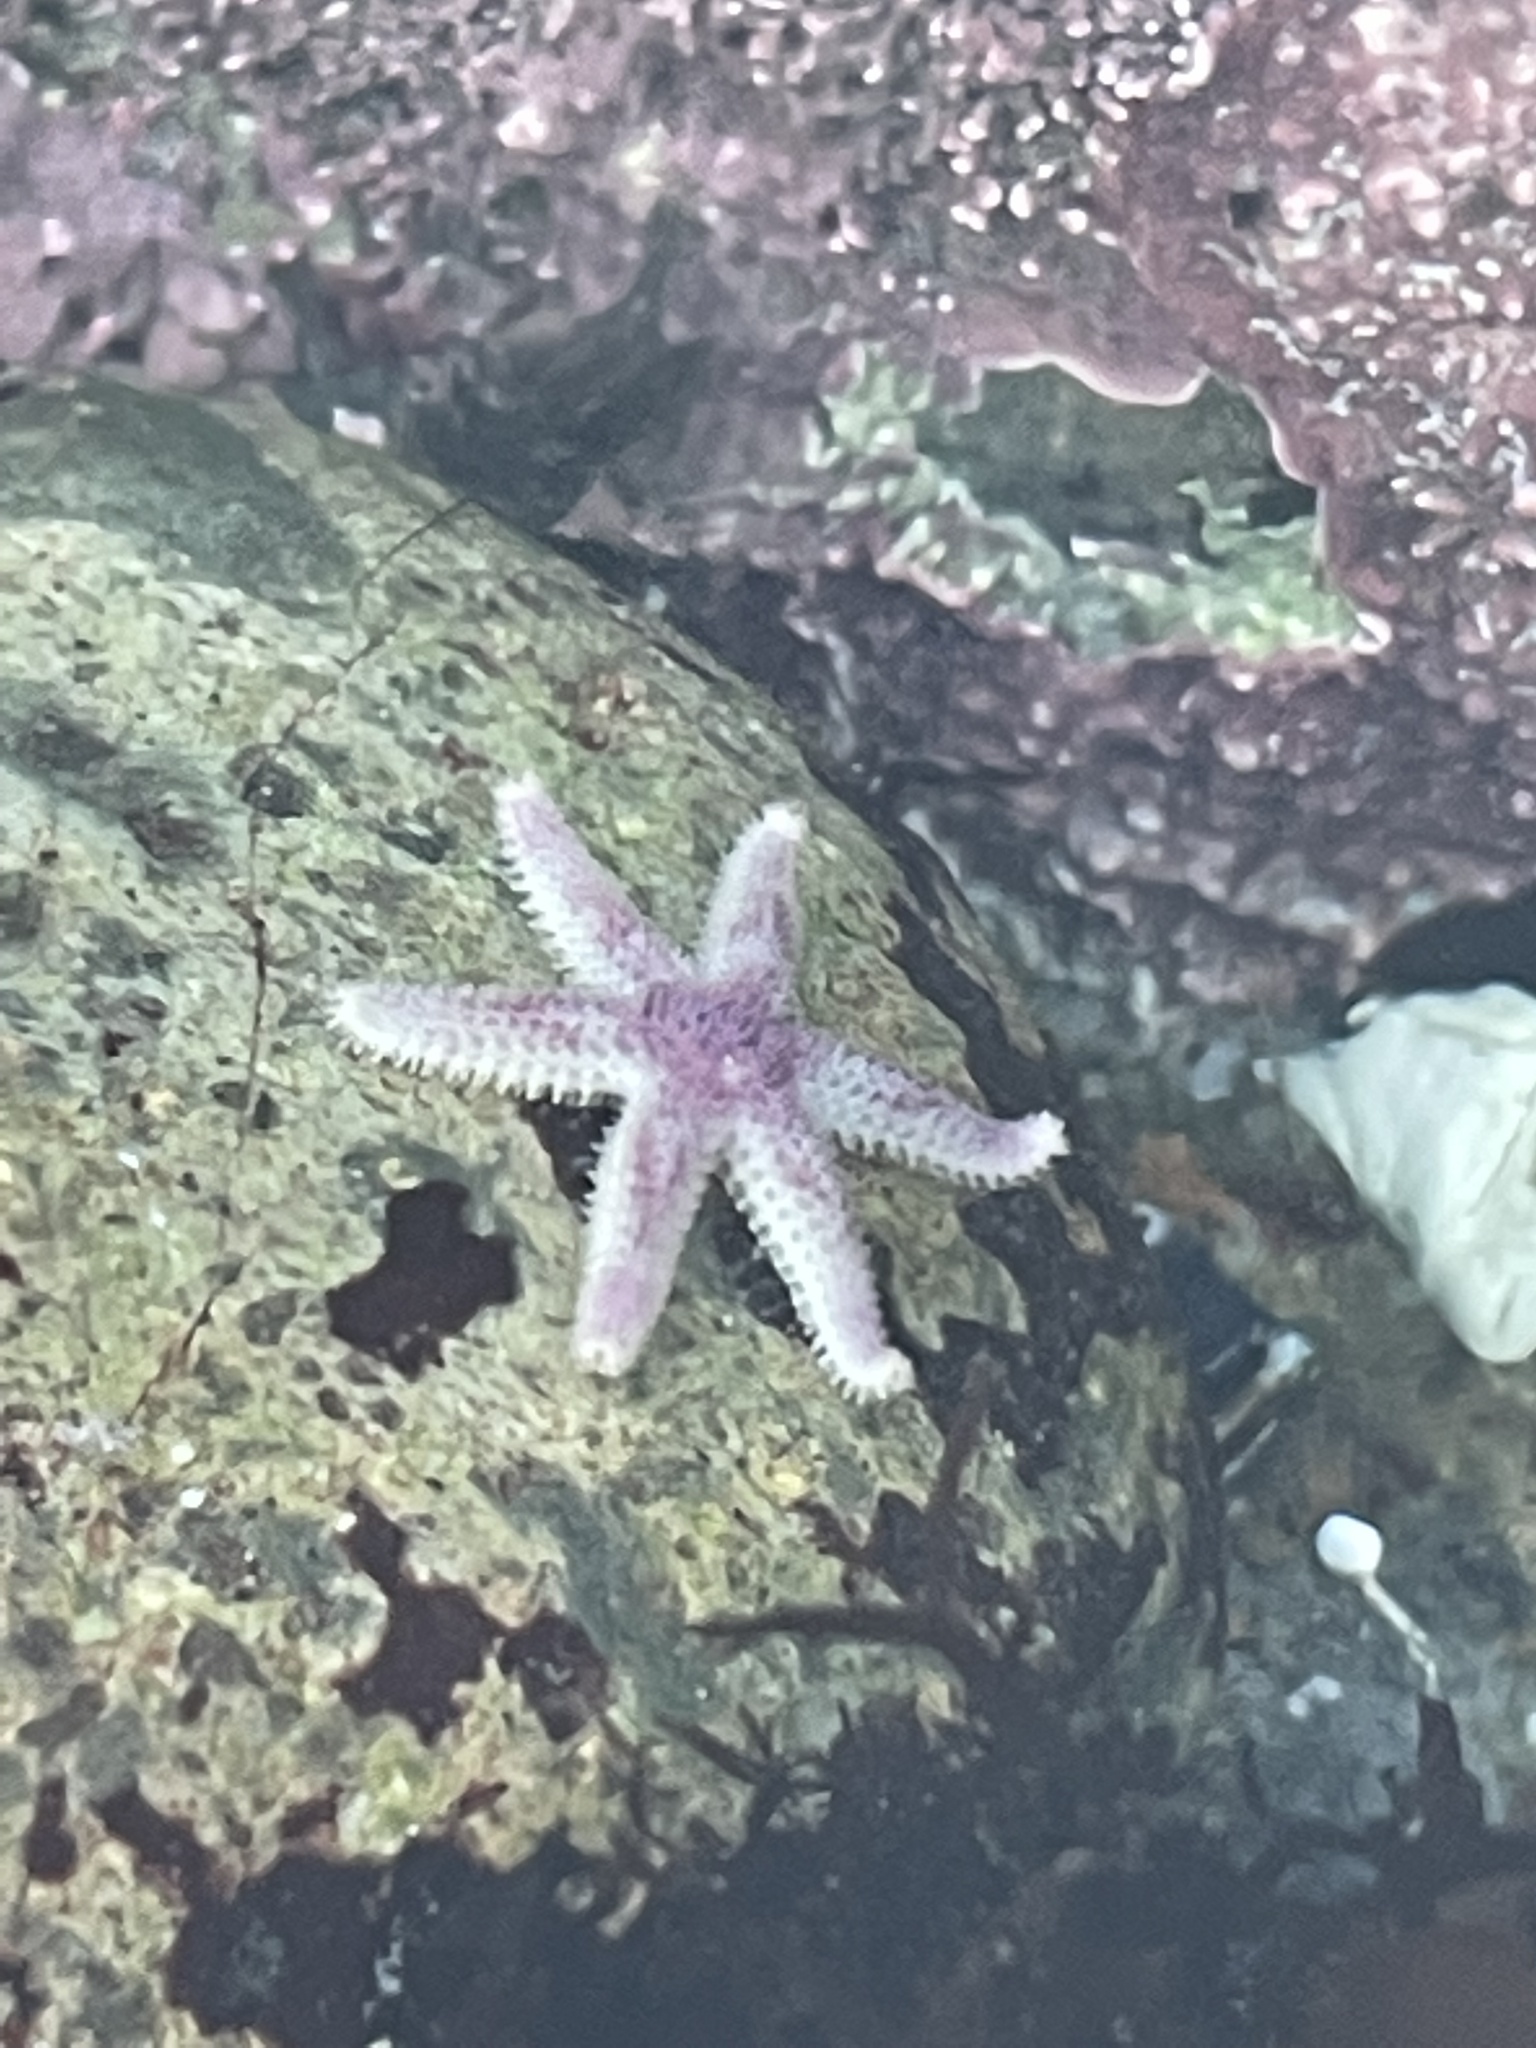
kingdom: Animalia
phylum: Echinodermata
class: Asteroidea
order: Forcipulatida
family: Asteriidae
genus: Leptasterias
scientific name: Leptasterias hexactis
